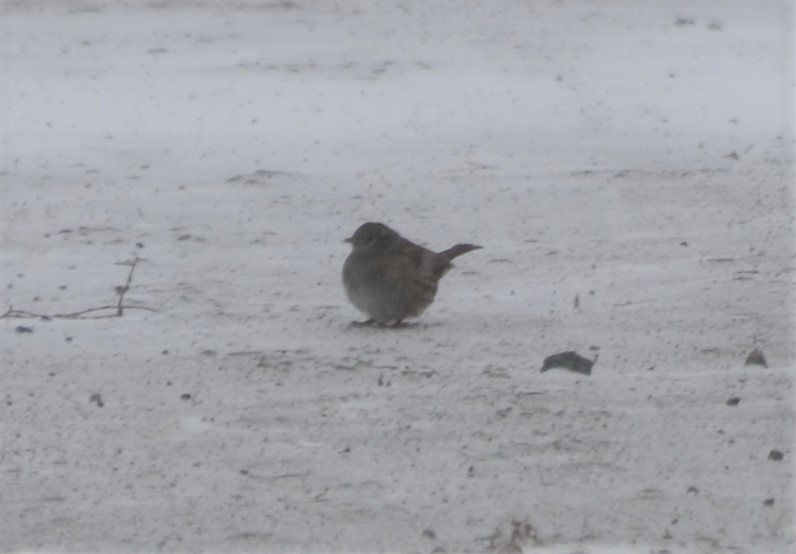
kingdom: Animalia
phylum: Chordata
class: Aves
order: Passeriformes
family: Prunellidae
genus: Prunella
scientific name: Prunella modularis
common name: Dunnock
